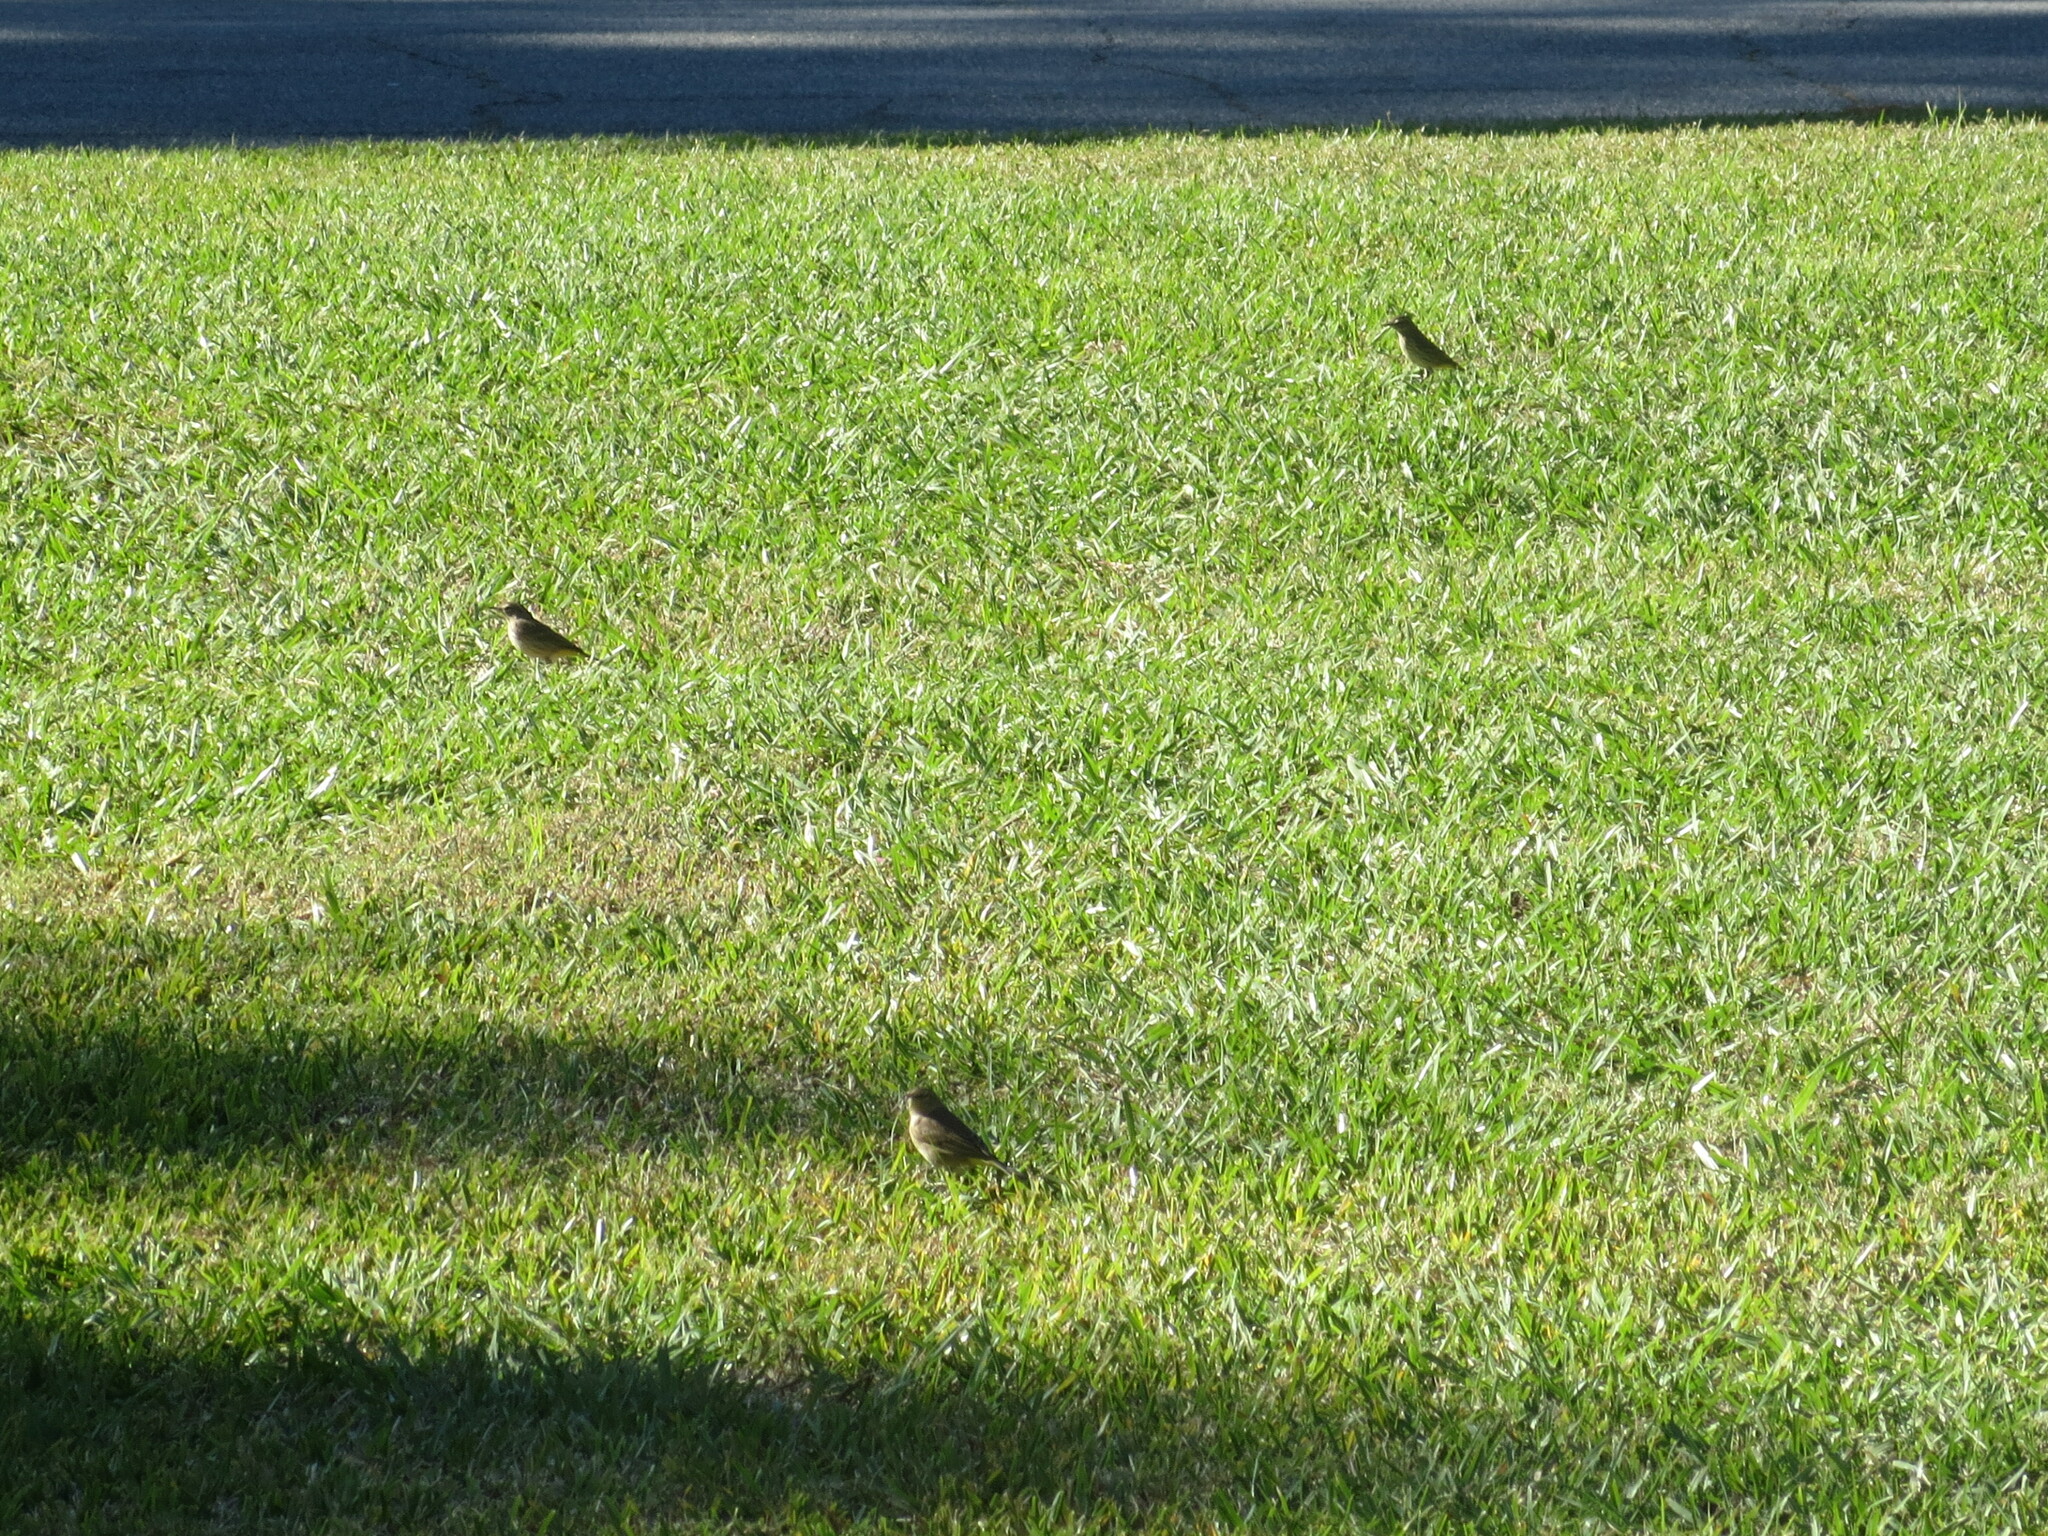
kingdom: Animalia
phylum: Chordata
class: Aves
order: Passeriformes
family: Parulidae
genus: Setophaga
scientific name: Setophaga palmarum
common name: Palm warbler
